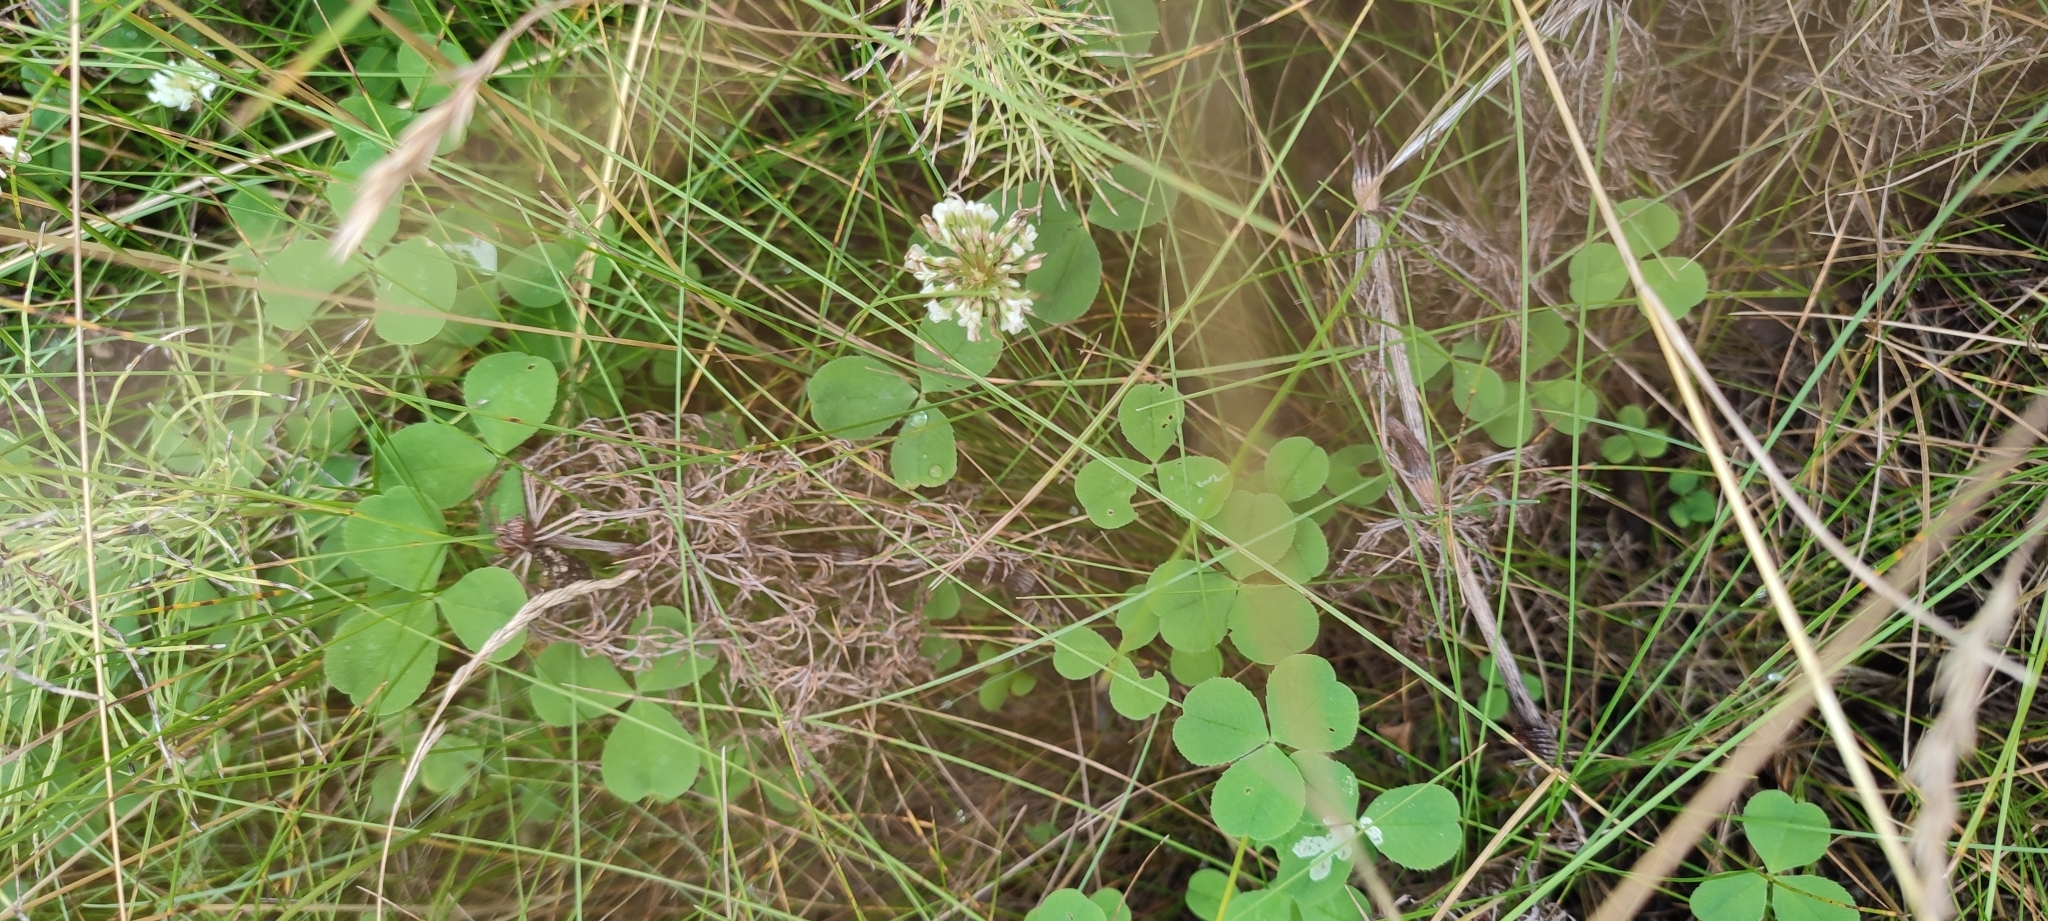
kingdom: Plantae
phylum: Tracheophyta
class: Magnoliopsida
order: Fabales
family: Fabaceae
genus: Trifolium
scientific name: Trifolium repens
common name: White clover
